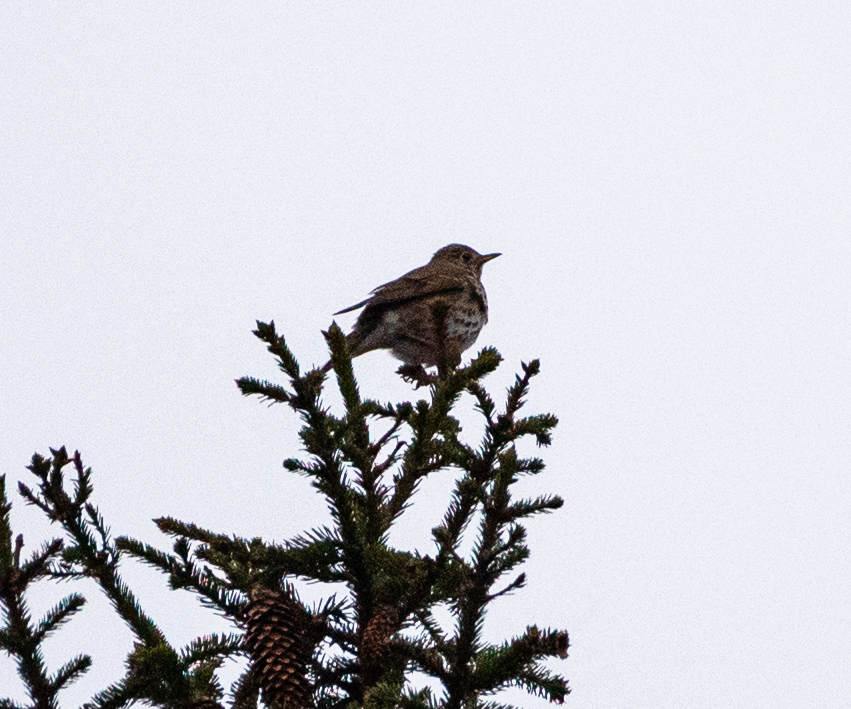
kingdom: Animalia
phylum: Chordata
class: Aves
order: Passeriformes
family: Turdidae
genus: Turdus
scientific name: Turdus philomelos
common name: Song thrush
